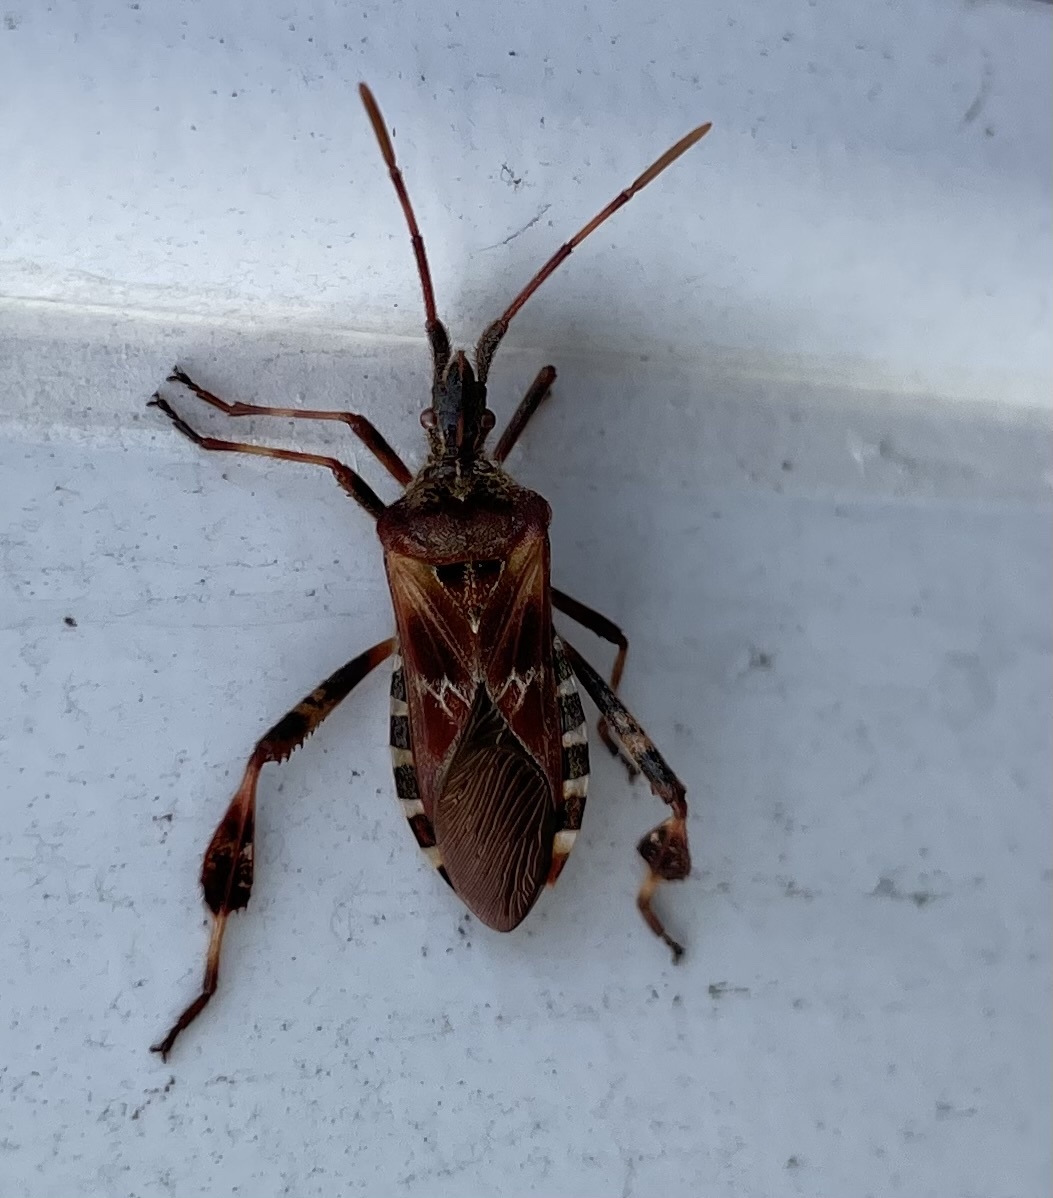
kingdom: Animalia
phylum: Arthropoda
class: Insecta
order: Hemiptera
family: Coreidae
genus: Leptoglossus
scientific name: Leptoglossus occidentalis
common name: Western conifer-seed bug
